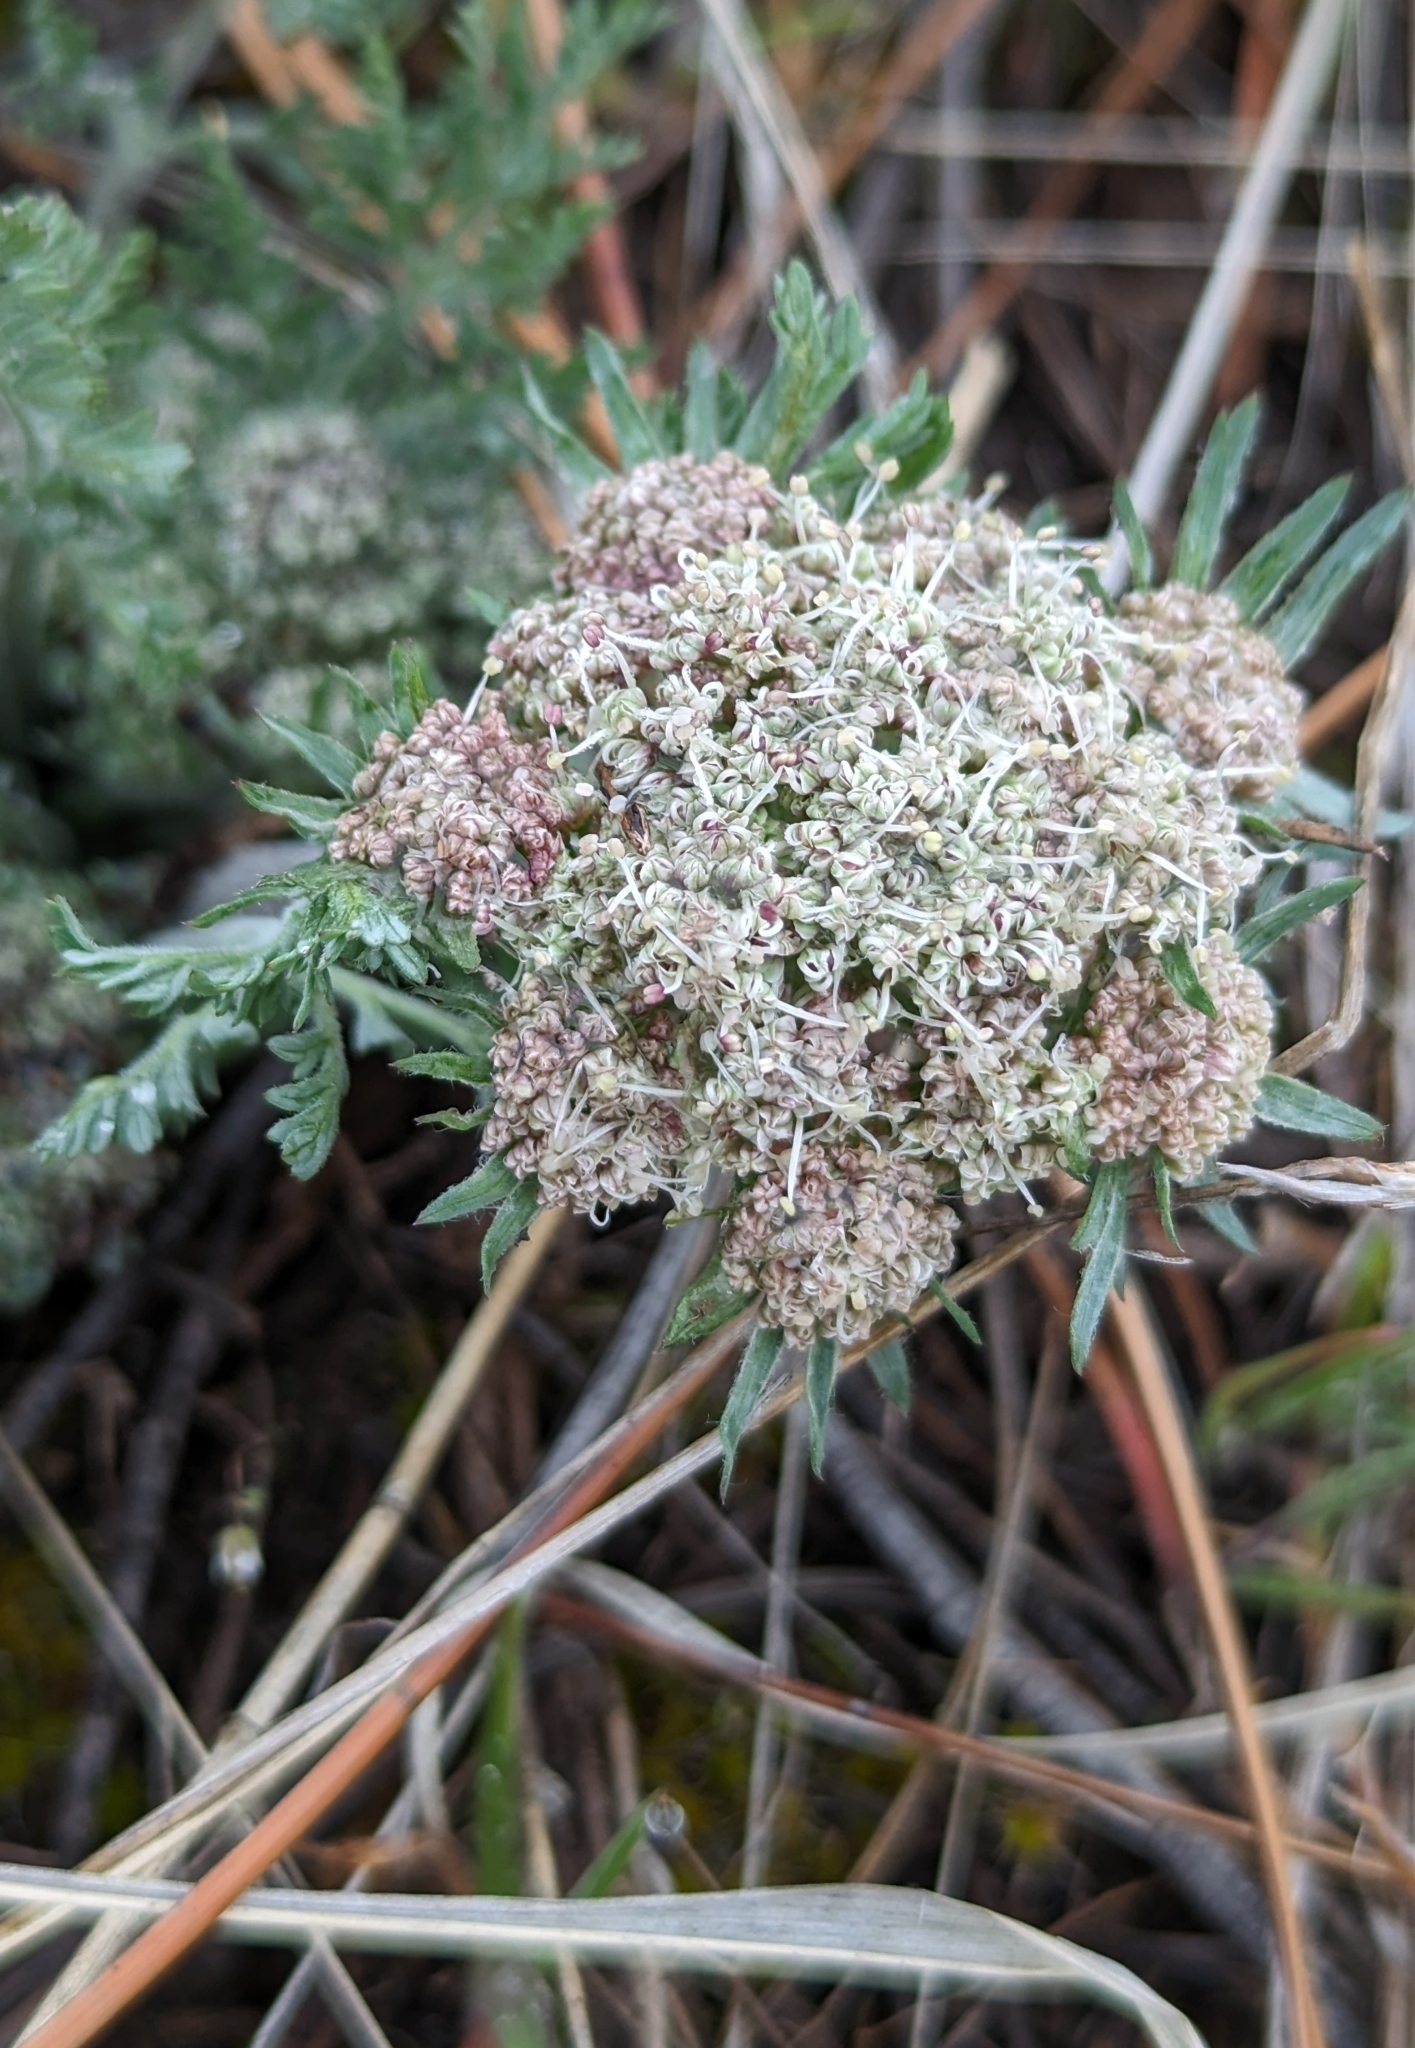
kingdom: Plantae
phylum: Tracheophyta
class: Magnoliopsida
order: Apiales
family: Apiaceae
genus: Lomatium
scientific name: Lomatium macrocarpum
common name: Big-seed biscuitroot
